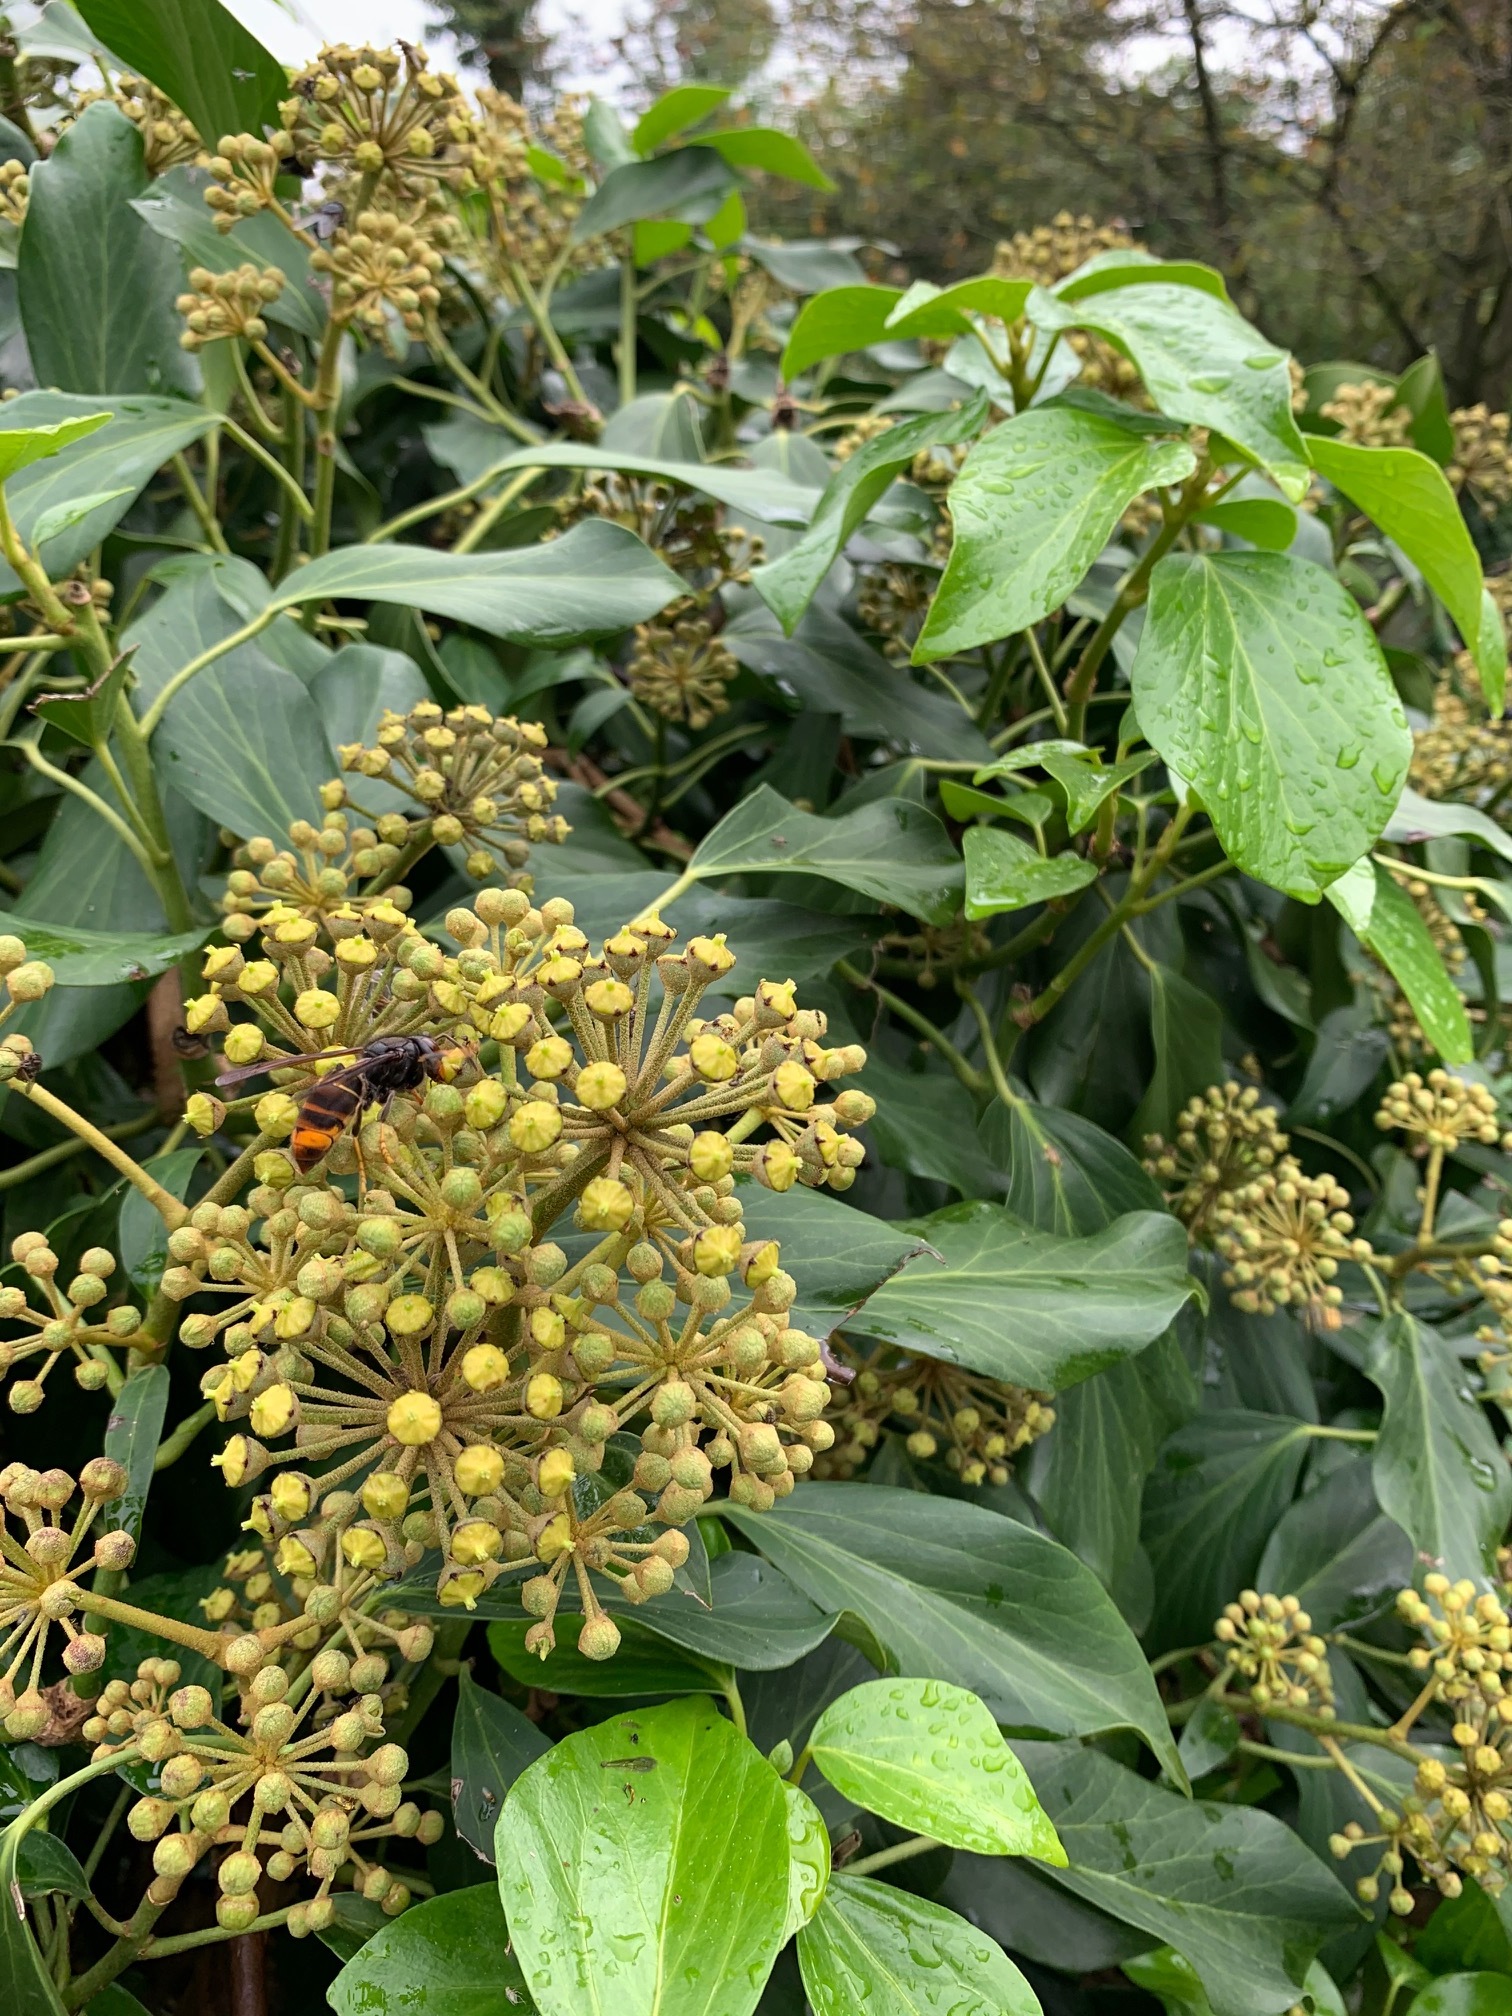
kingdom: Animalia
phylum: Arthropoda
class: Insecta
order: Hymenoptera
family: Vespidae
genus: Vespa
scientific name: Vespa velutina
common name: Asian hornet
